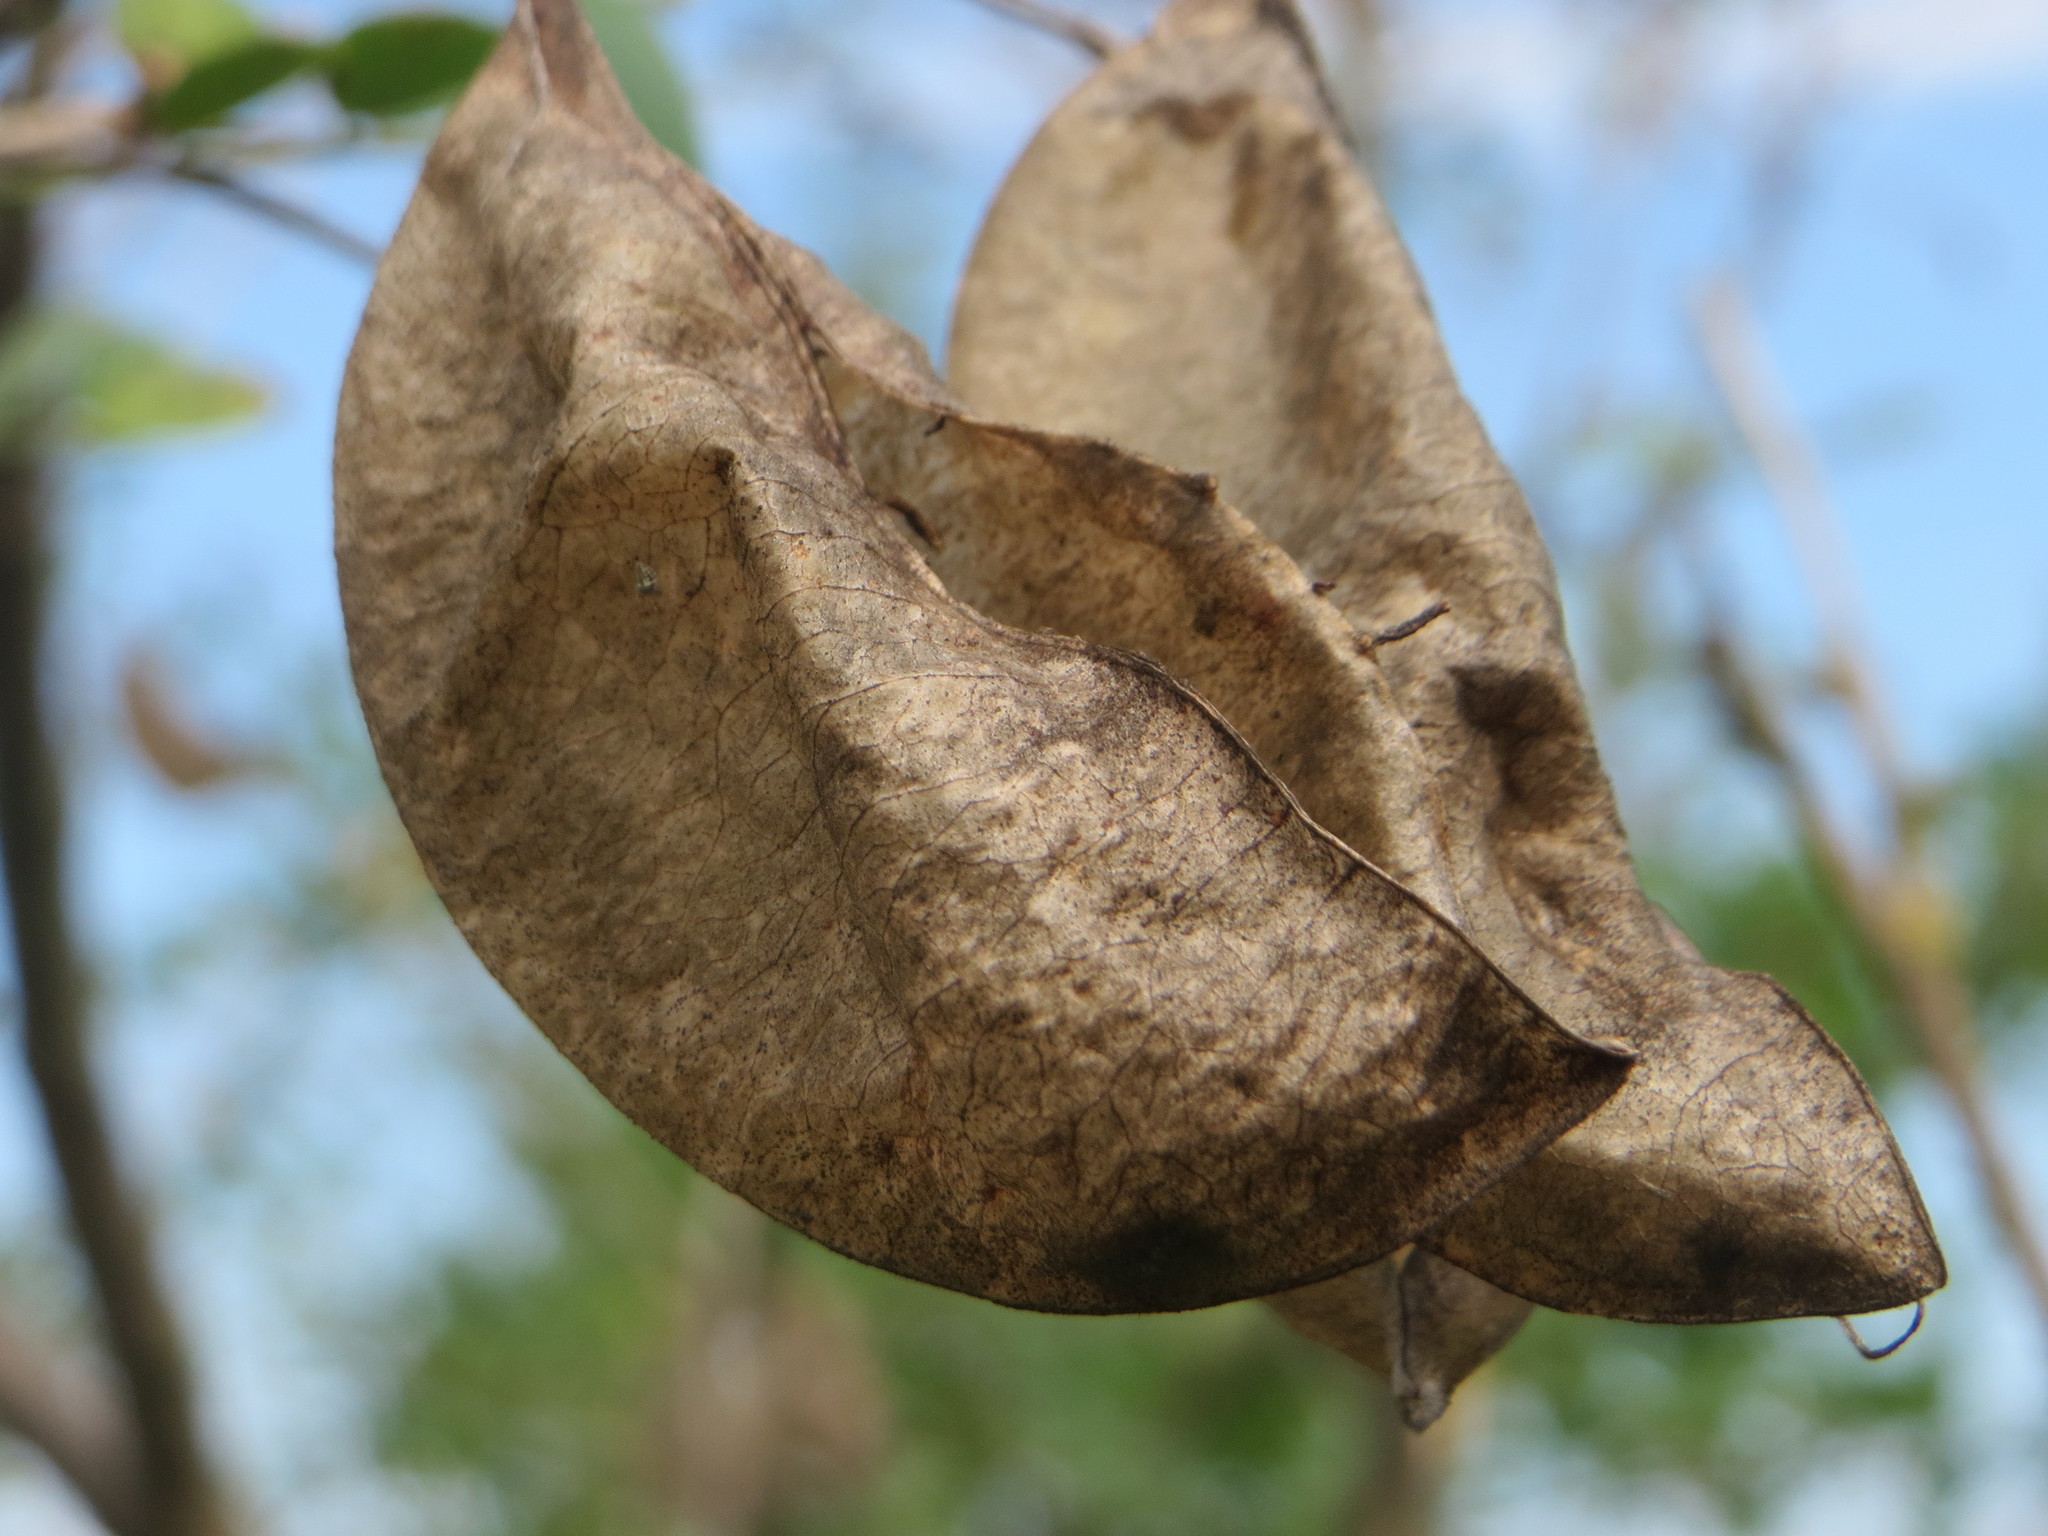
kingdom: Plantae
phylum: Tracheophyta
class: Magnoliopsida
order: Fabales
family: Fabaceae
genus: Colutea
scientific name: Colutea arborescens
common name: Bladder-senna
